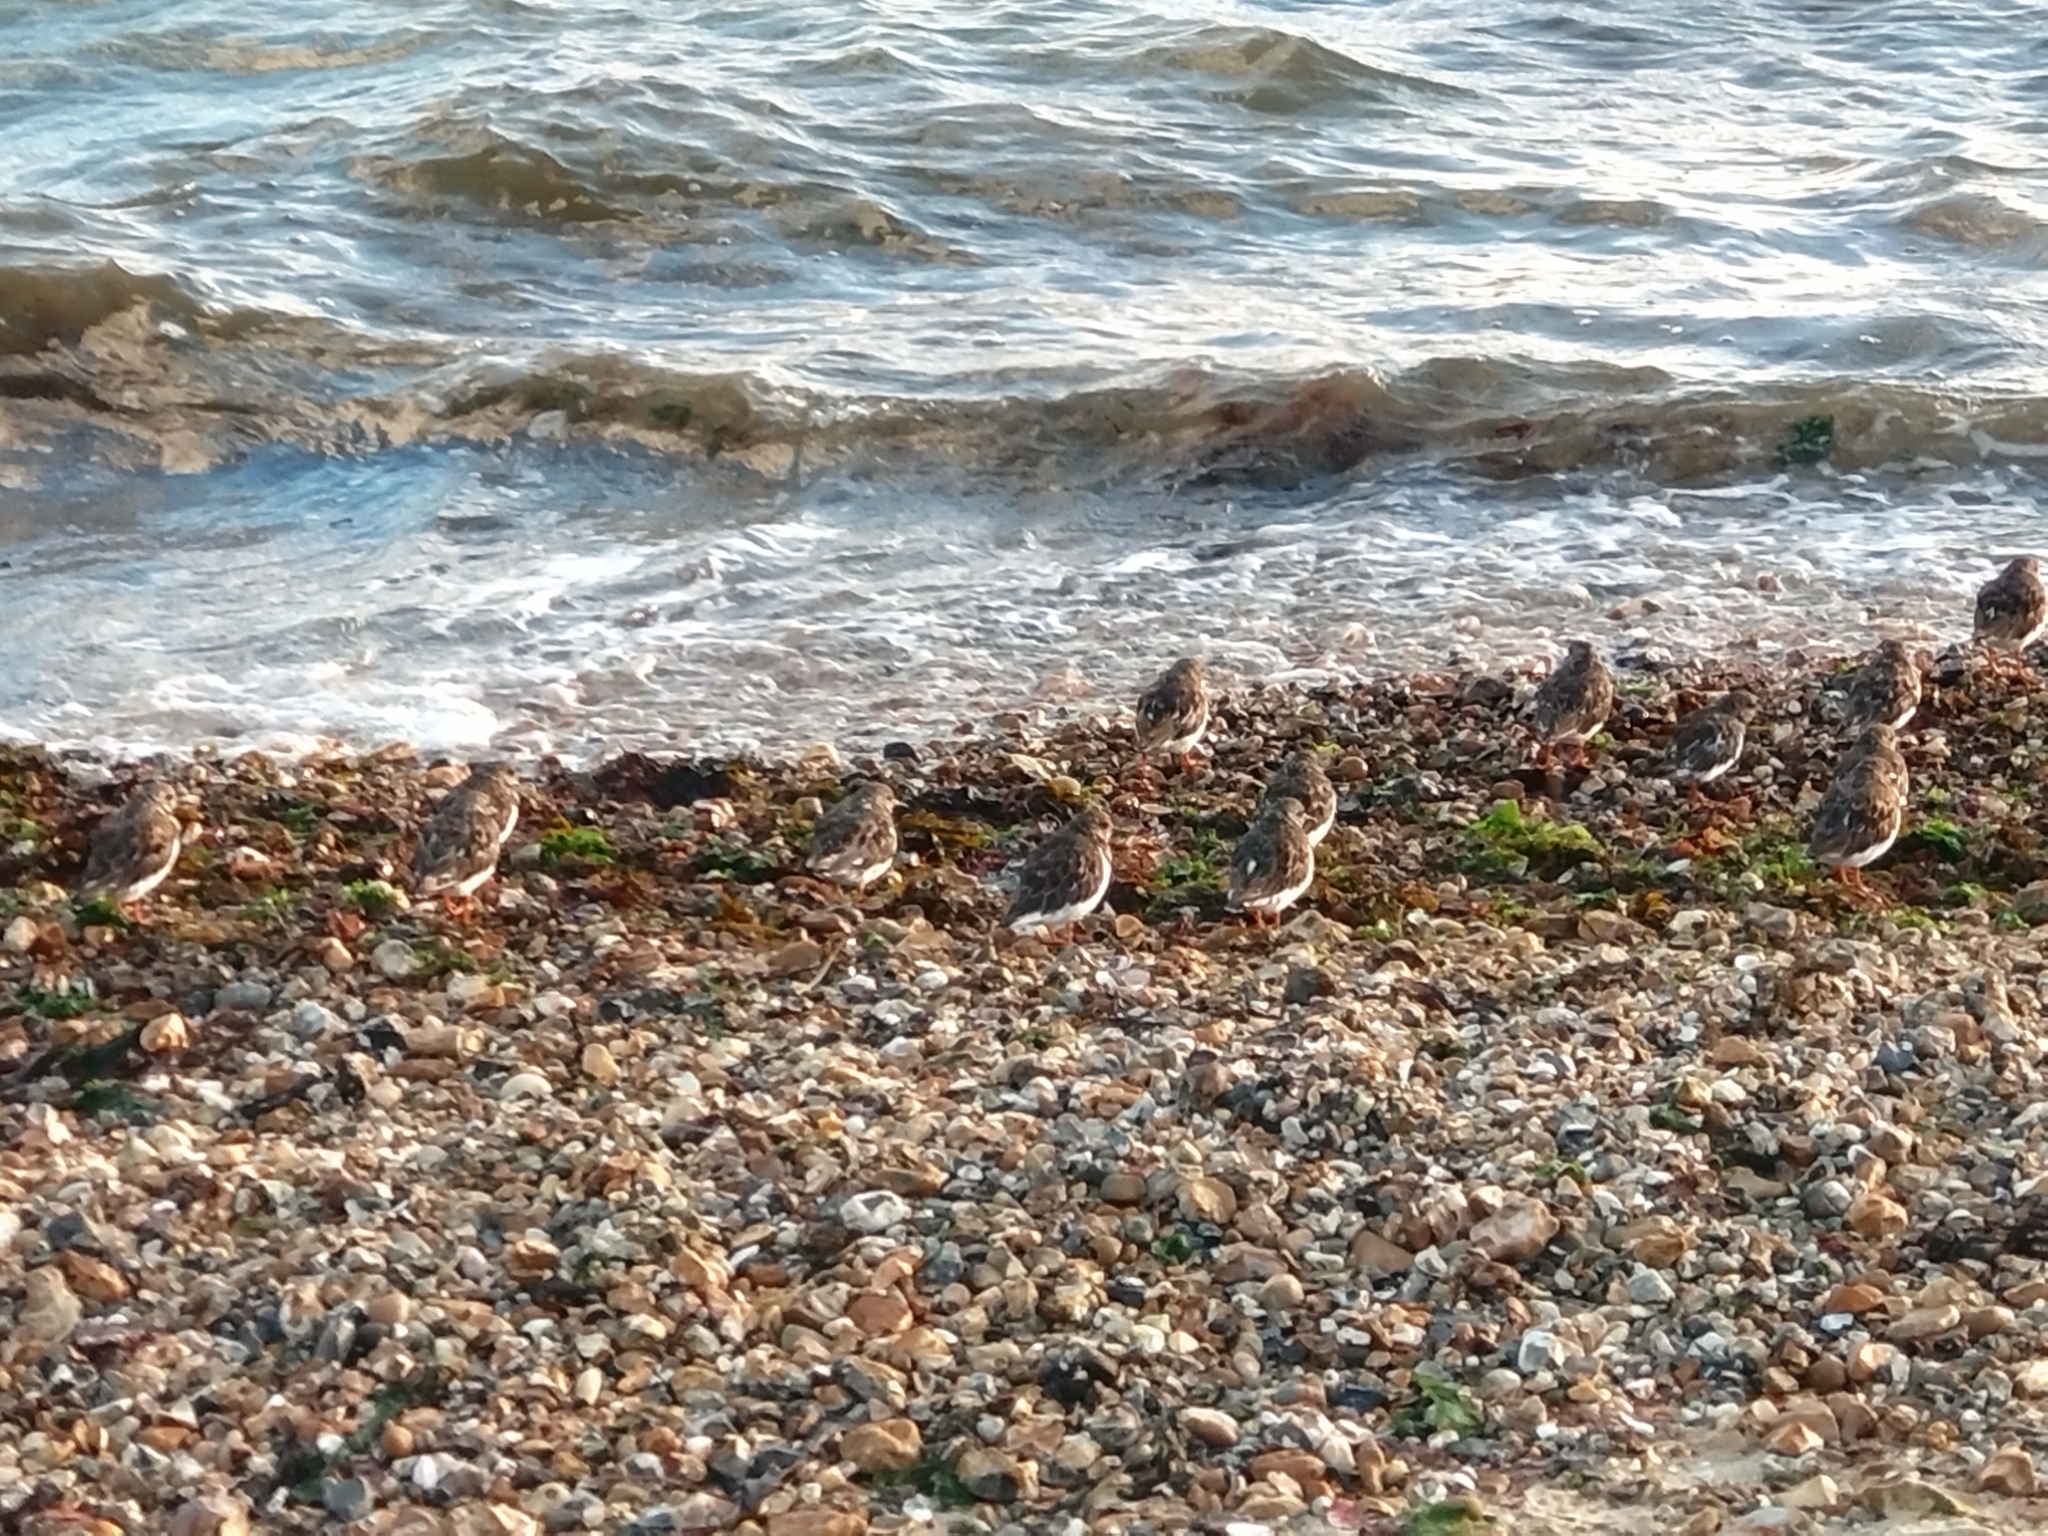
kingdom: Animalia
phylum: Chordata
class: Aves
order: Charadriiformes
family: Scolopacidae
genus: Arenaria
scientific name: Arenaria interpres
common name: Ruddy turnstone
